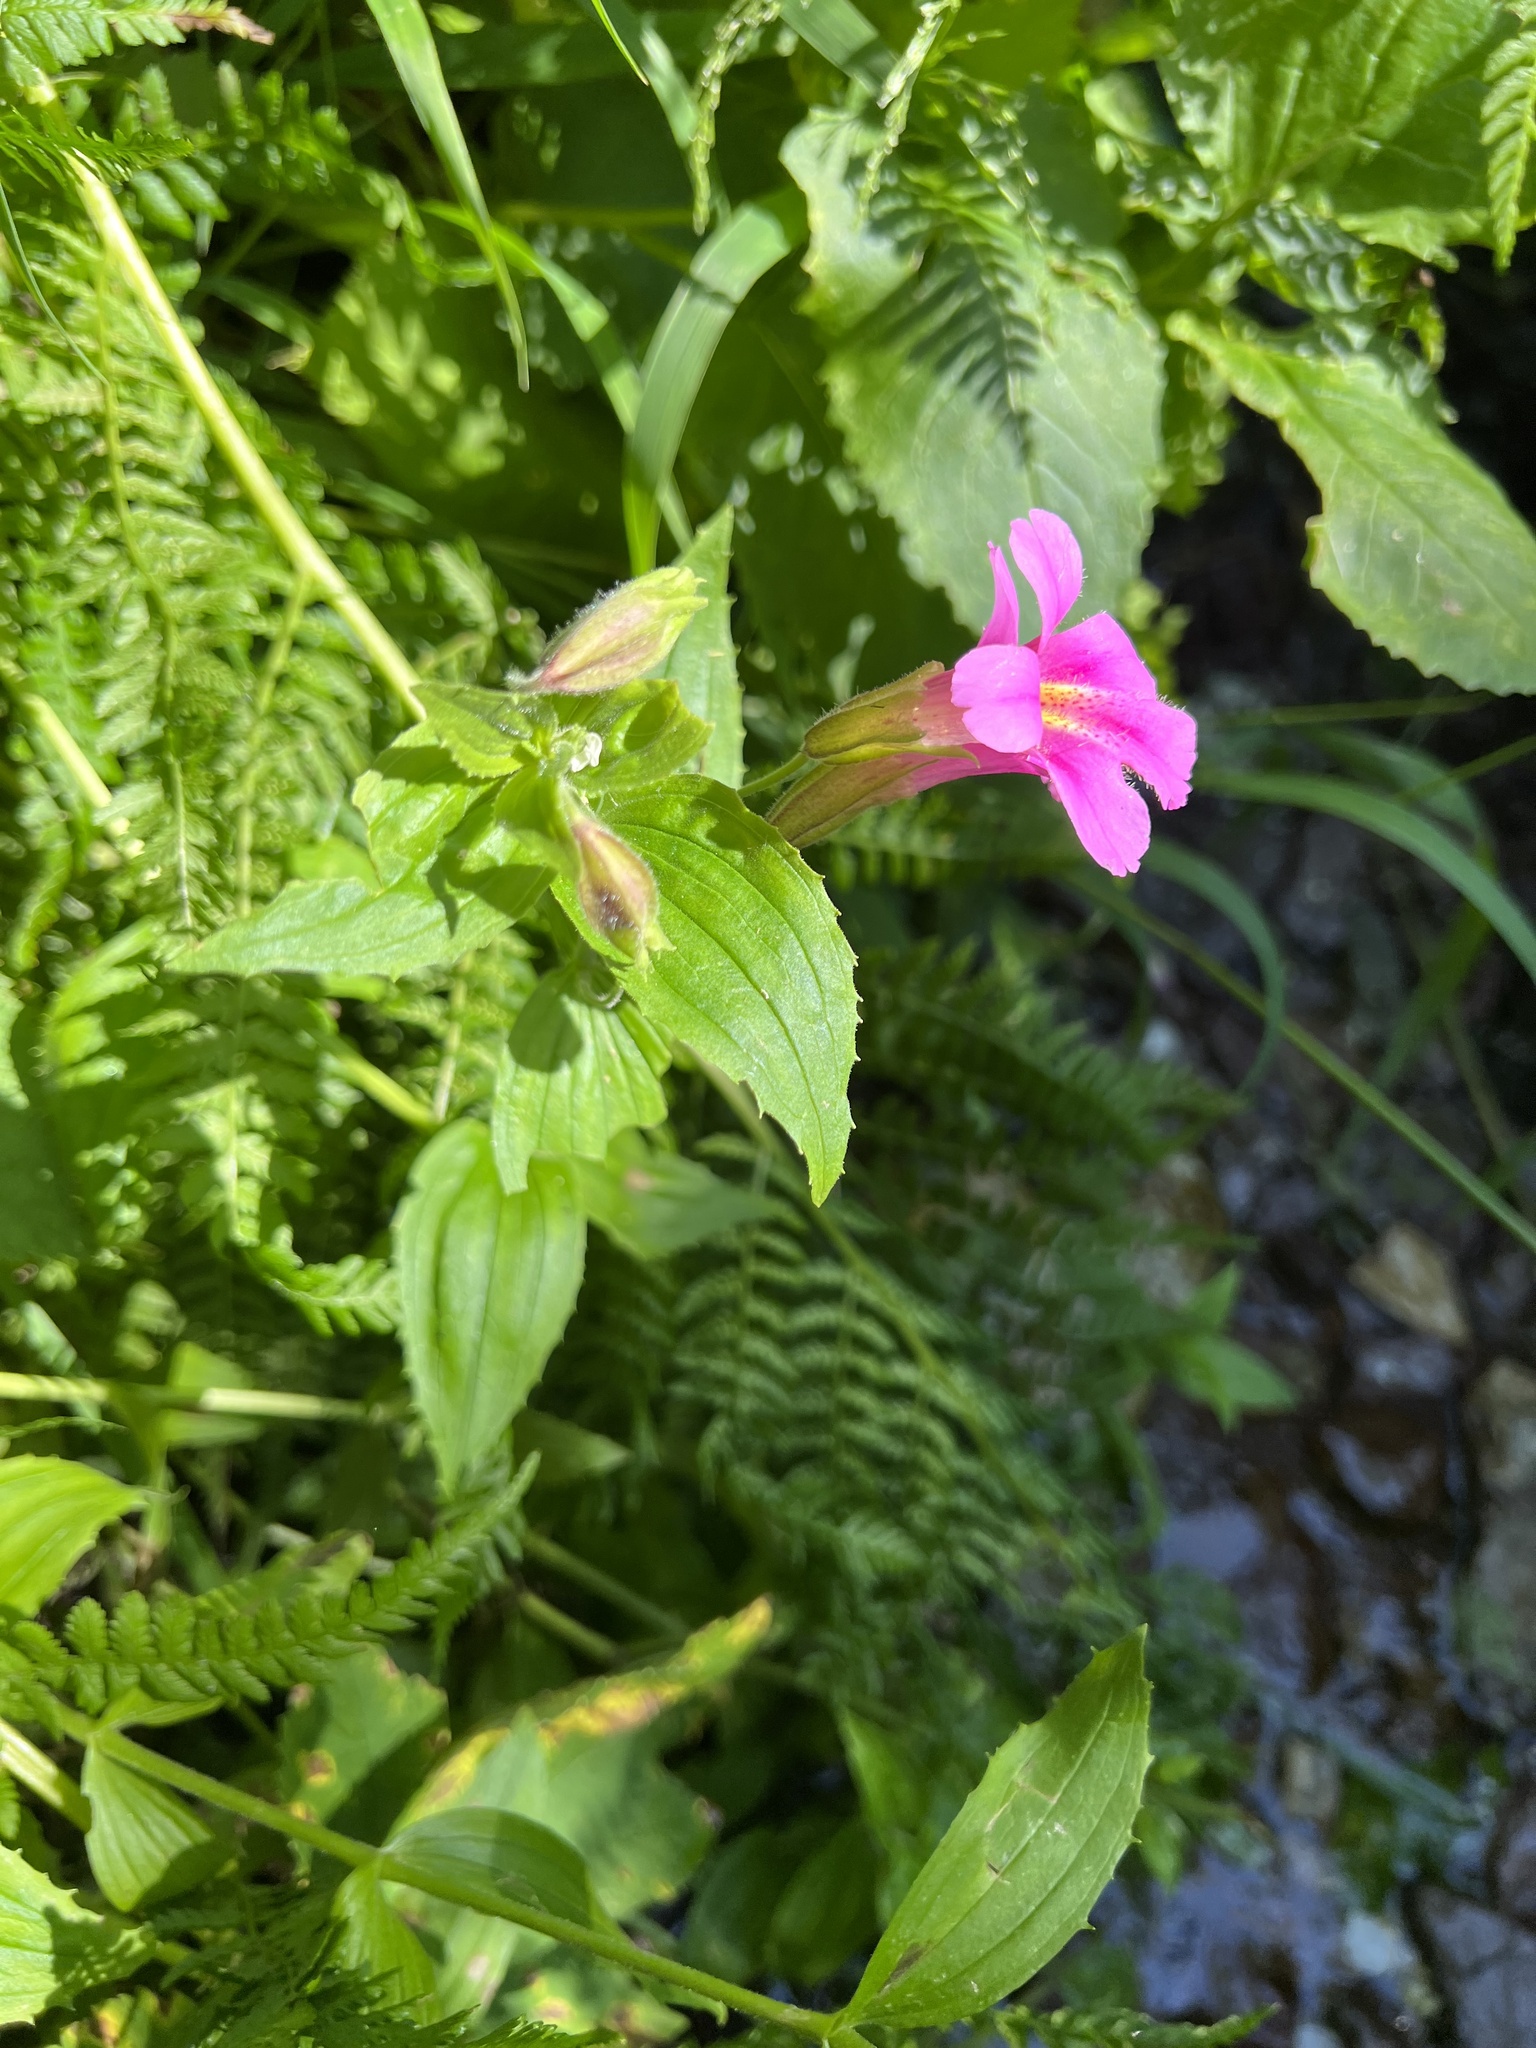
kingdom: Plantae
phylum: Tracheophyta
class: Magnoliopsida
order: Lamiales
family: Phrymaceae
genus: Erythranthe
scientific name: Erythranthe lewisii
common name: Lewis's monkey-flower
